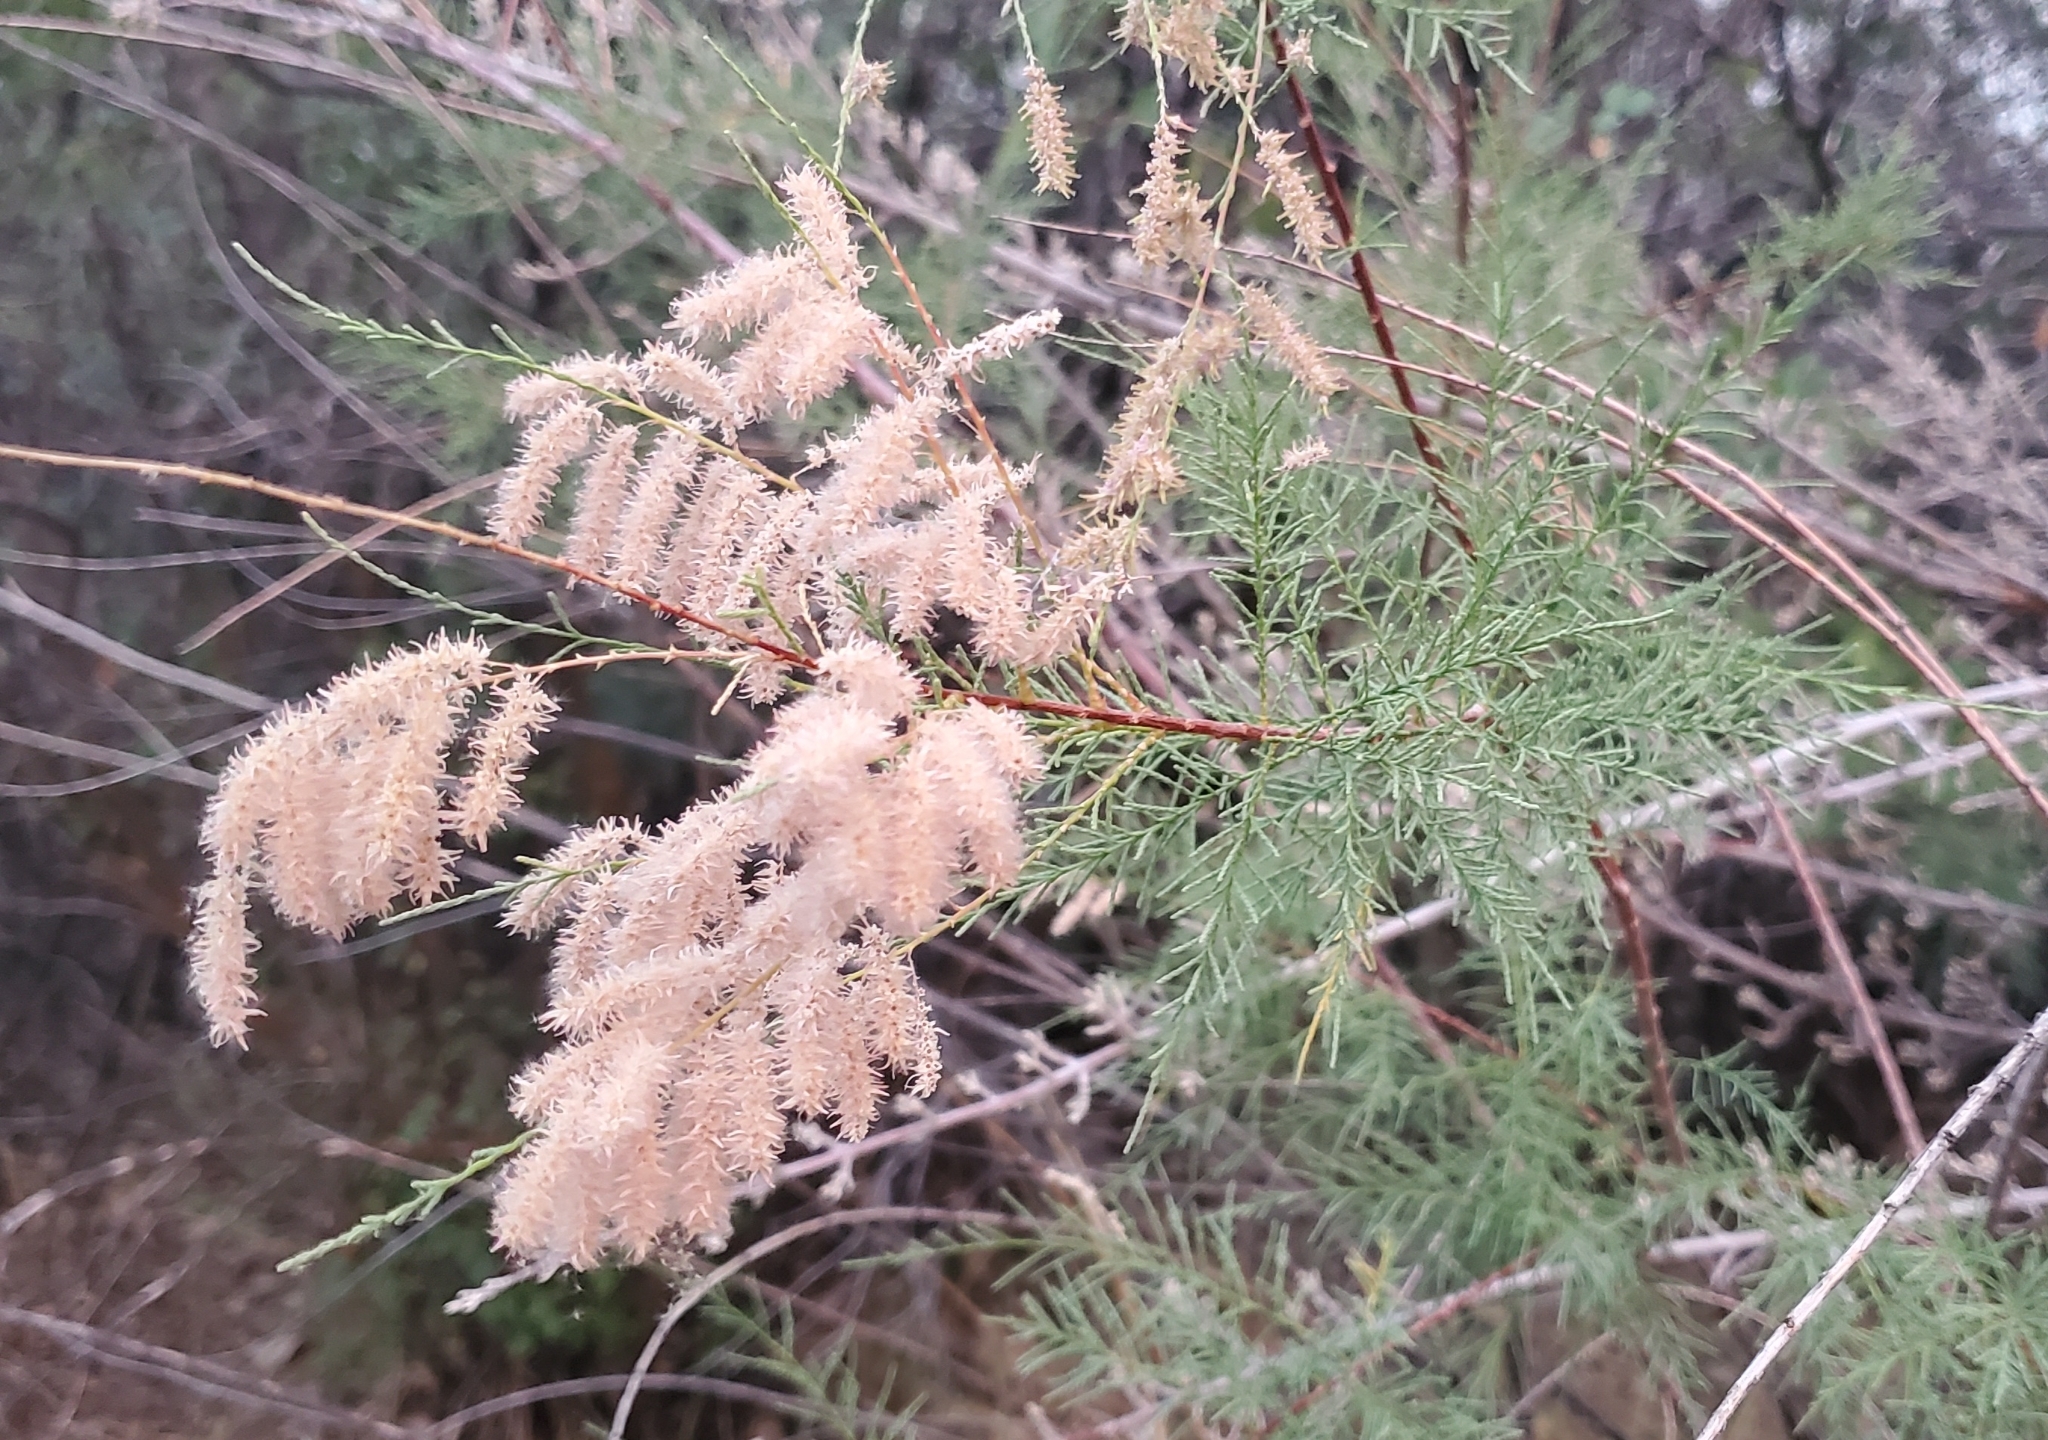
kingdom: Plantae
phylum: Tracheophyta
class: Magnoliopsida
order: Caryophyllales
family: Tamaricaceae
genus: Tamarix
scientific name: Tamarix
